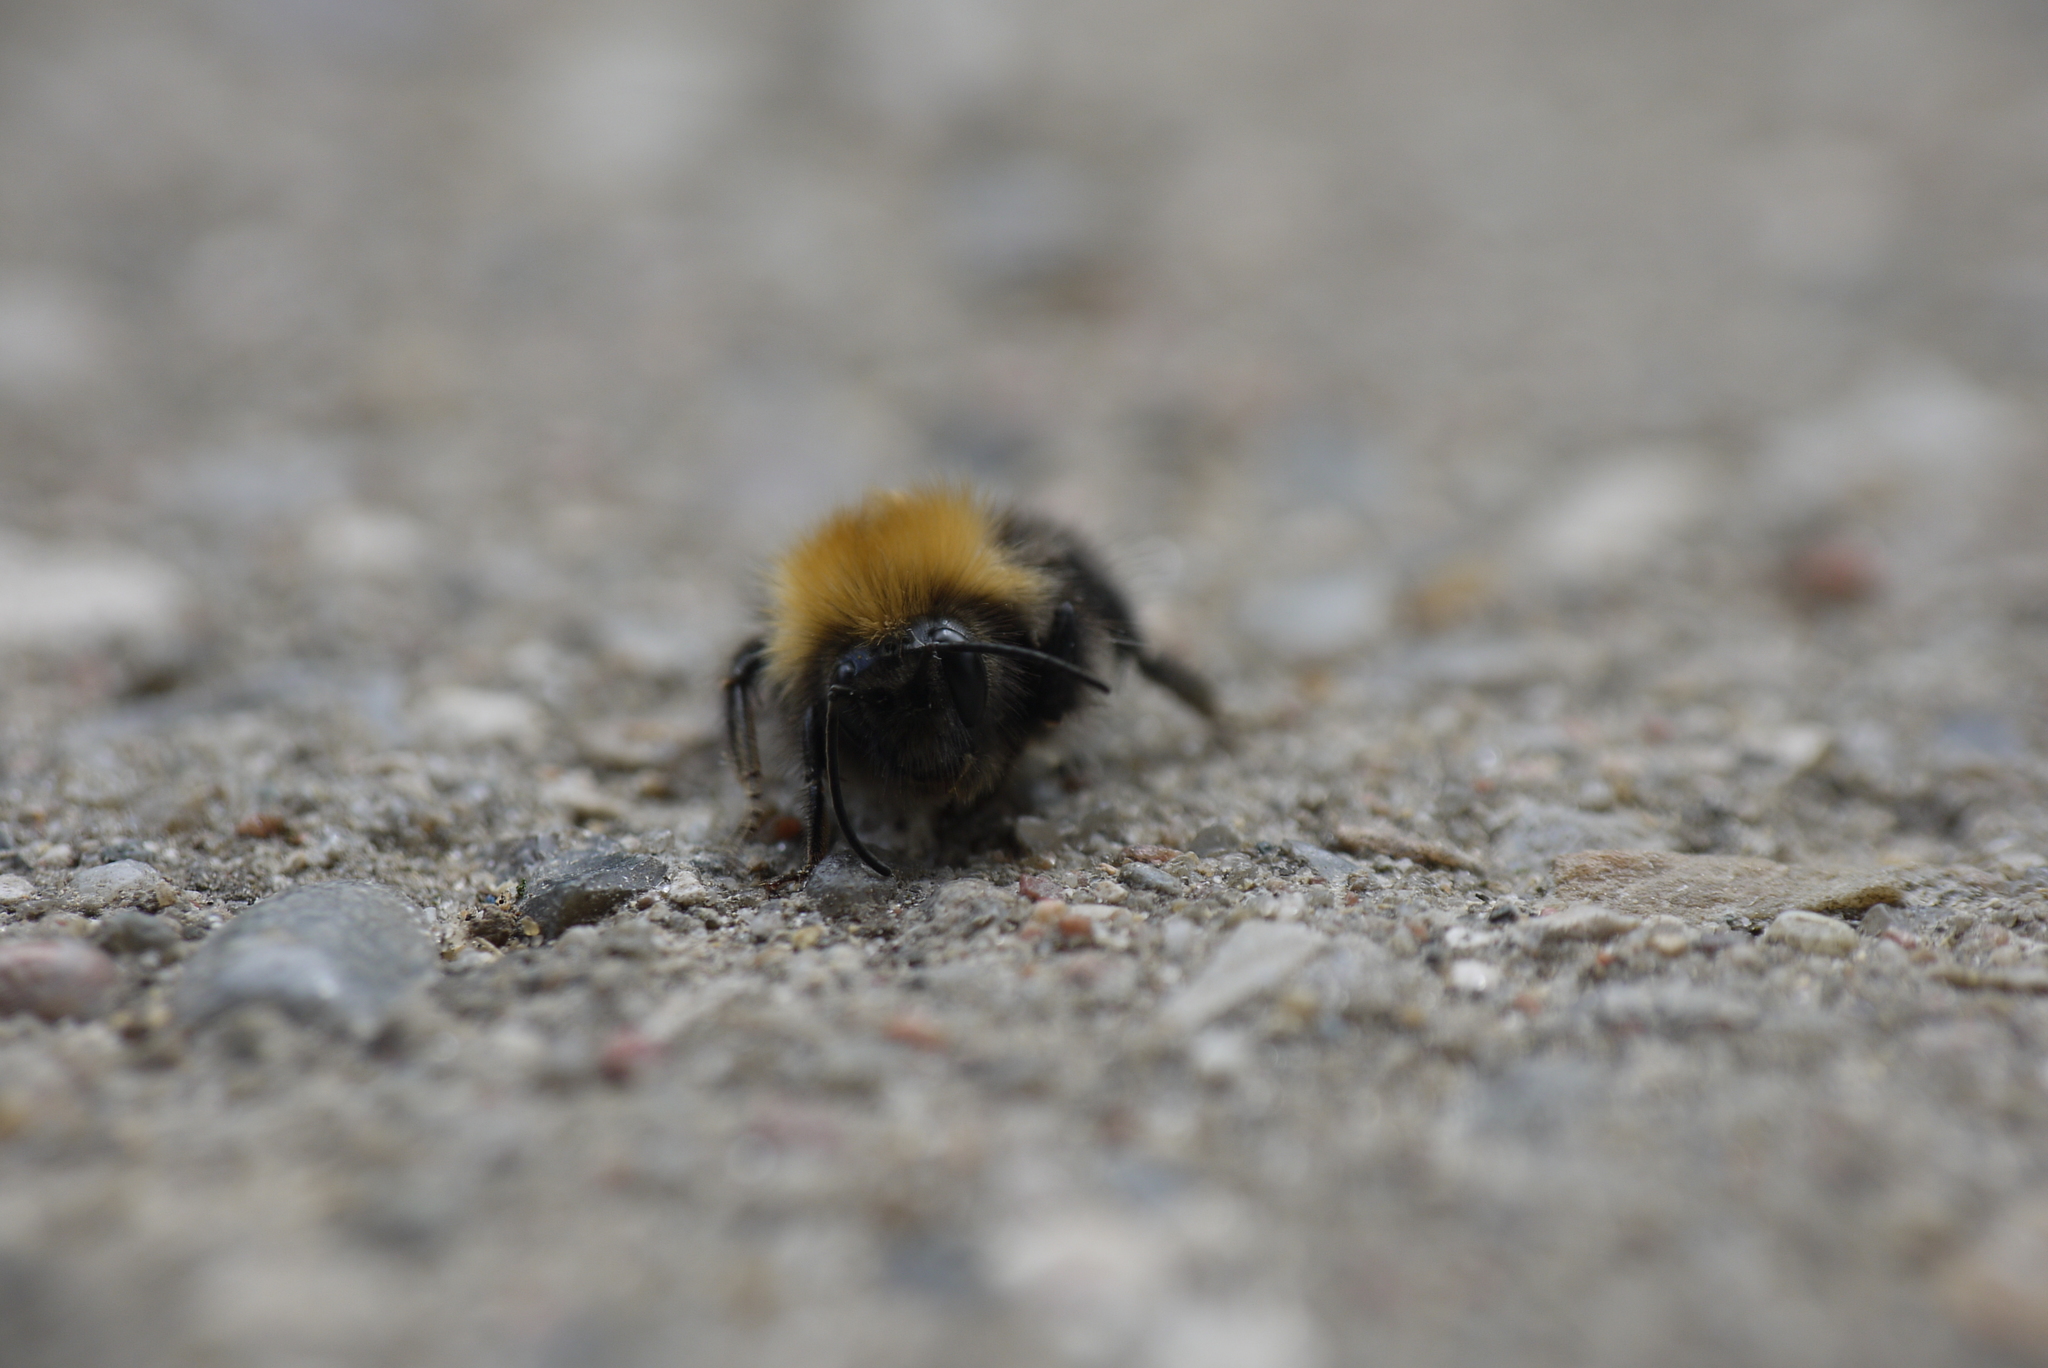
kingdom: Animalia
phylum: Arthropoda
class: Insecta
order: Hymenoptera
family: Apidae
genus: Bombus
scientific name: Bombus hypnorum
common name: New garden bumblebee
